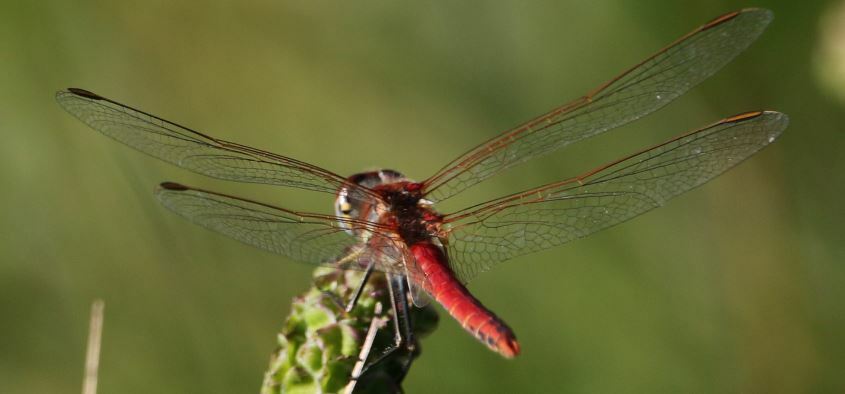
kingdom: Animalia
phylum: Arthropoda
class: Insecta
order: Odonata
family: Libellulidae
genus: Sympetrum
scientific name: Sympetrum fonscolombii
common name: Red-veined darter
